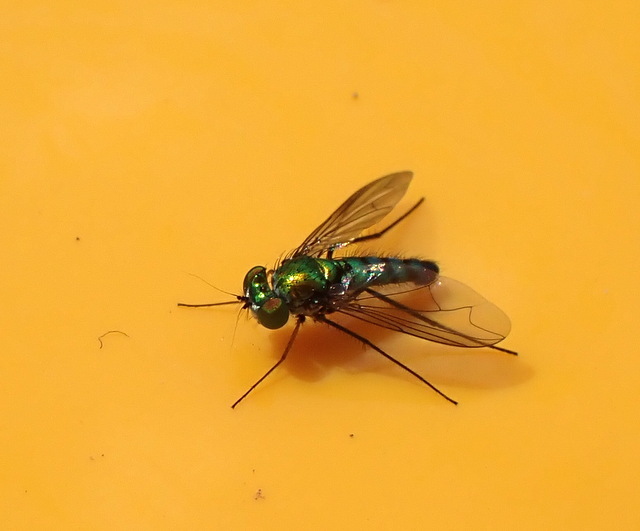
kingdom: Animalia
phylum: Arthropoda
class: Insecta
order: Diptera
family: Dolichopodidae
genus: Condylostylus
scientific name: Condylostylus longicornis
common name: Long-legged fly
